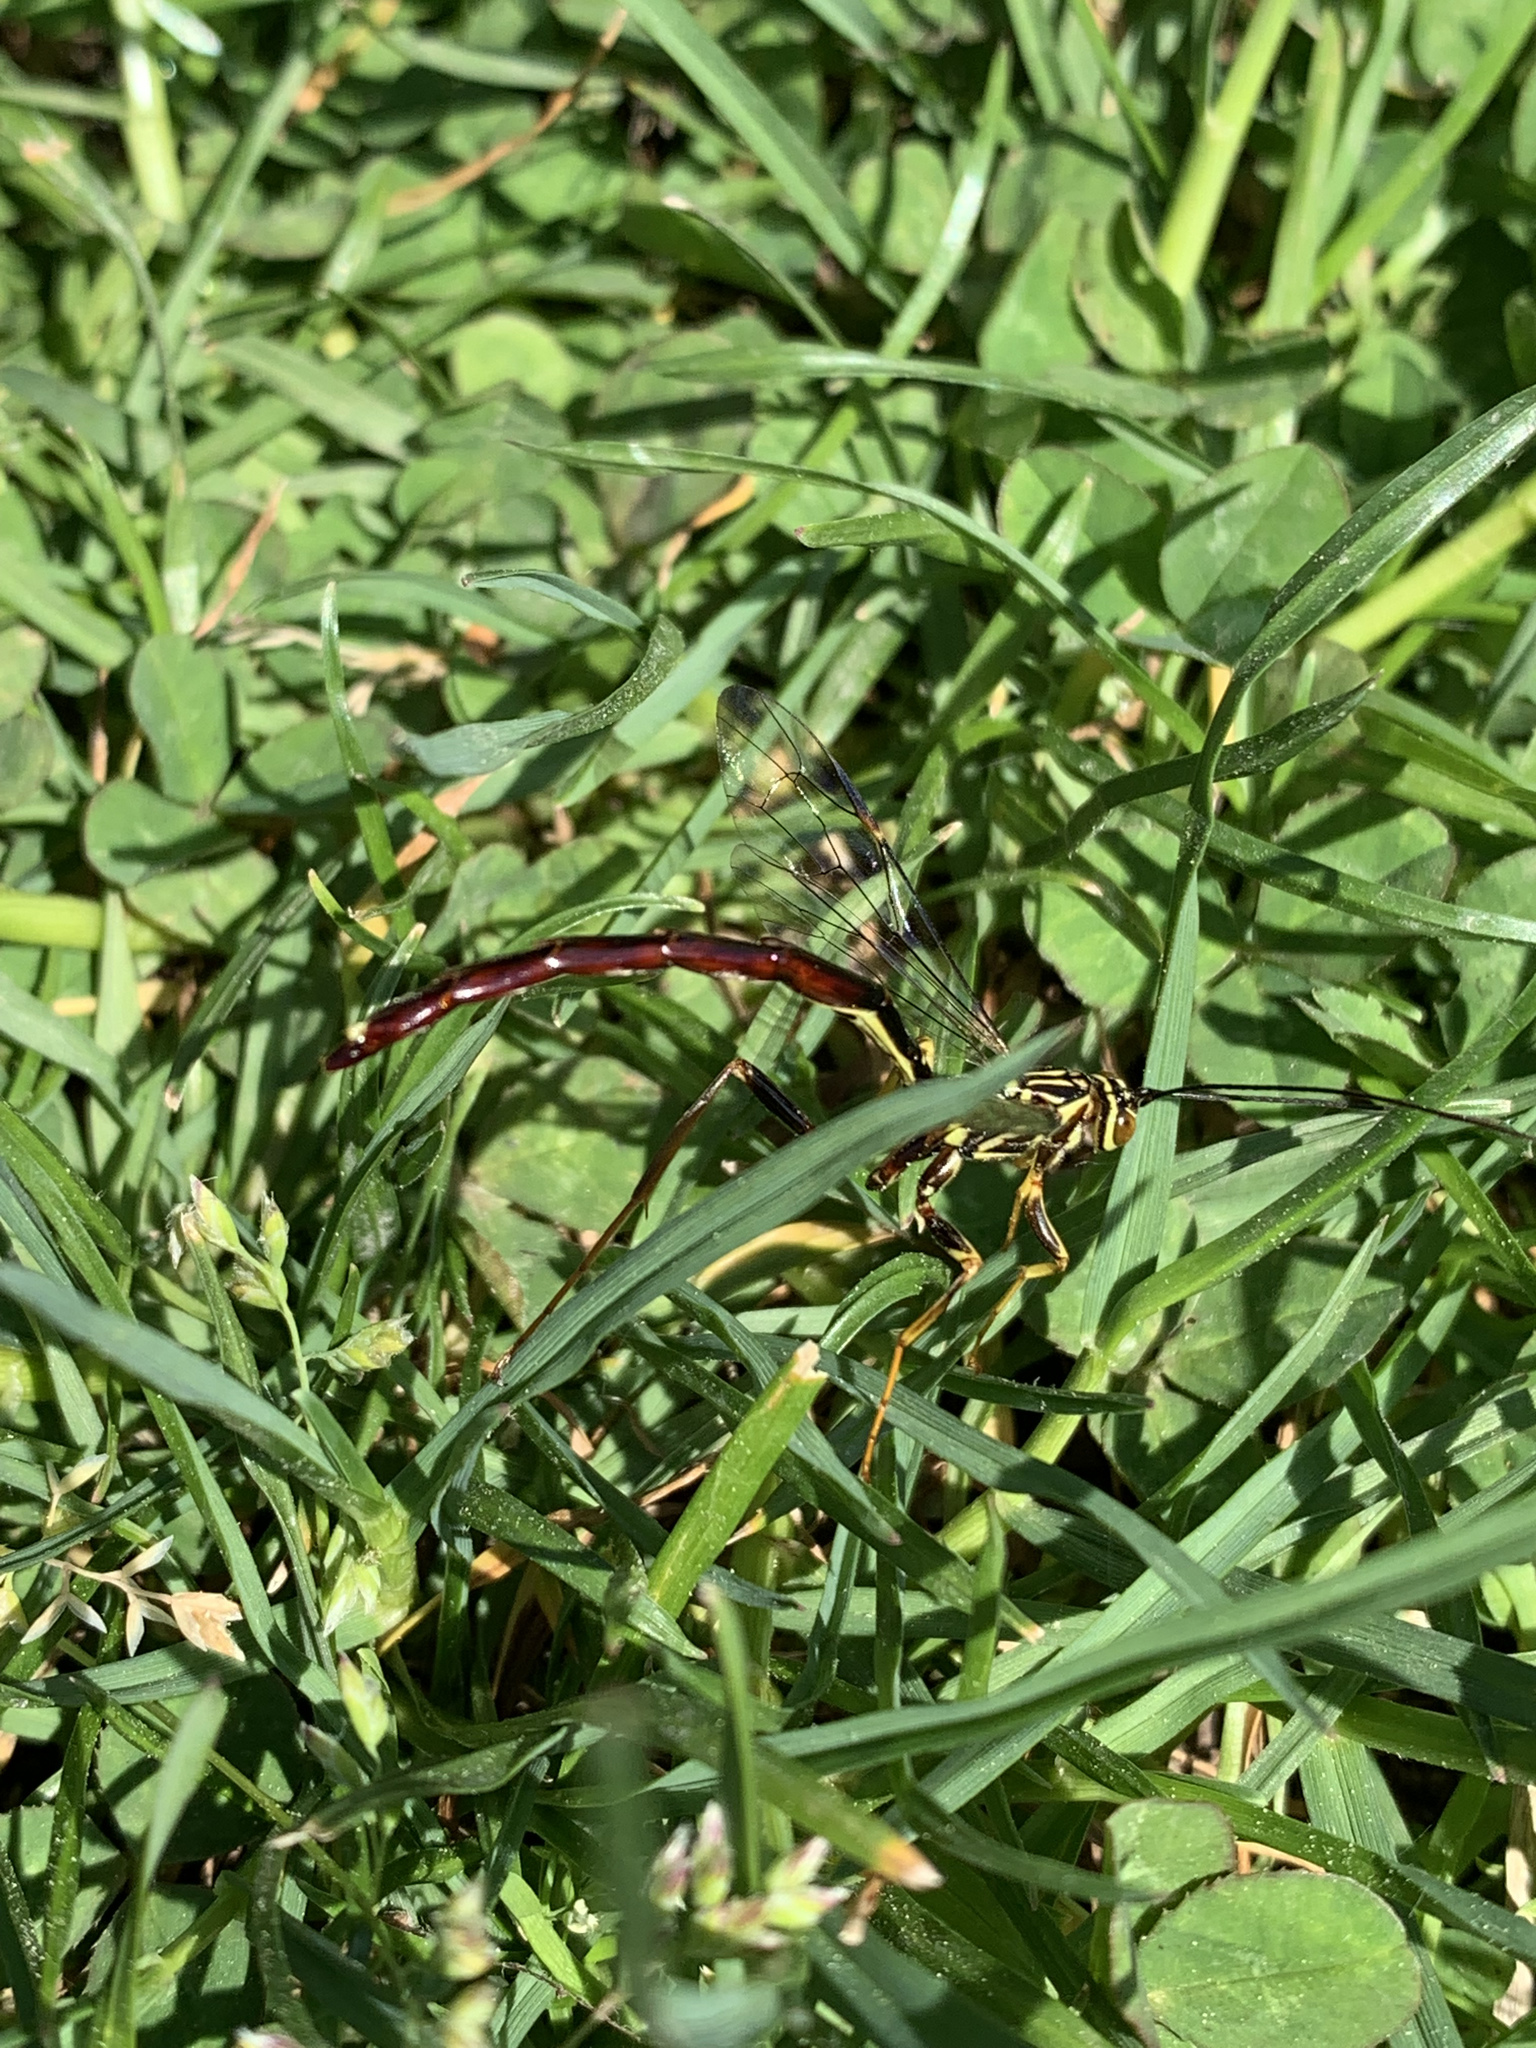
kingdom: Animalia
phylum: Arthropoda
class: Insecta
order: Hymenoptera
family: Ichneumonidae
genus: Megarhyssa
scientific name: Megarhyssa atrata
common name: Black giant ichneumonid wasp
